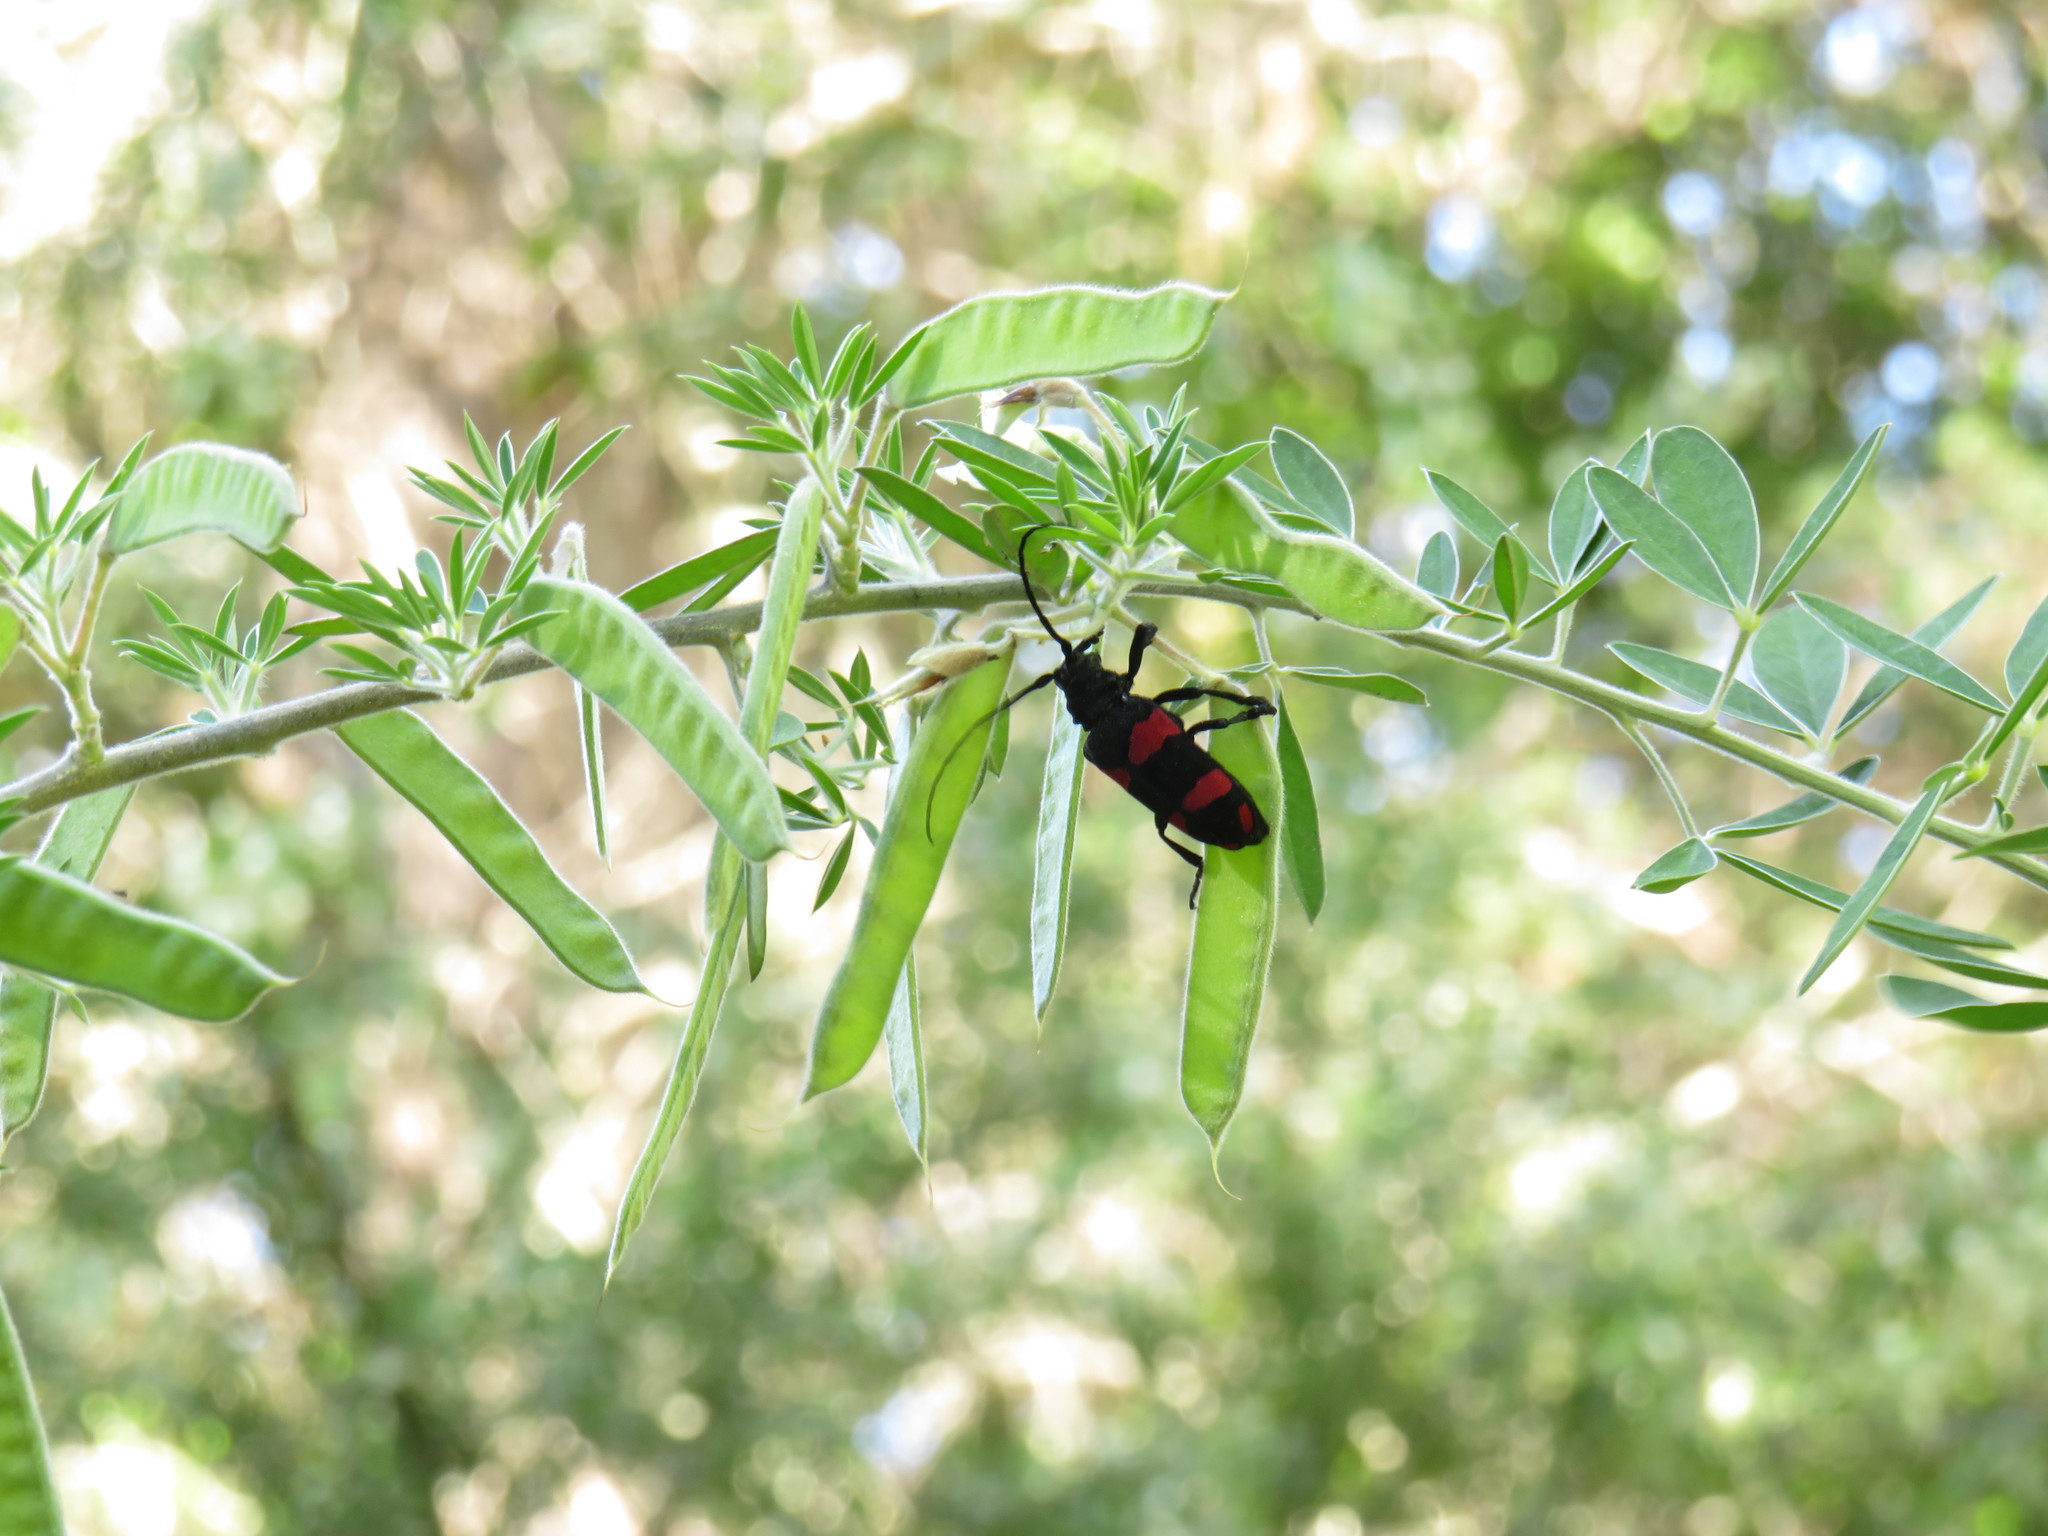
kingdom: Animalia
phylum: Arthropoda
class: Insecta
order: Coleoptera
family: Cerambycidae
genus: Ceroplesis
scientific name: Ceroplesis aethiops
